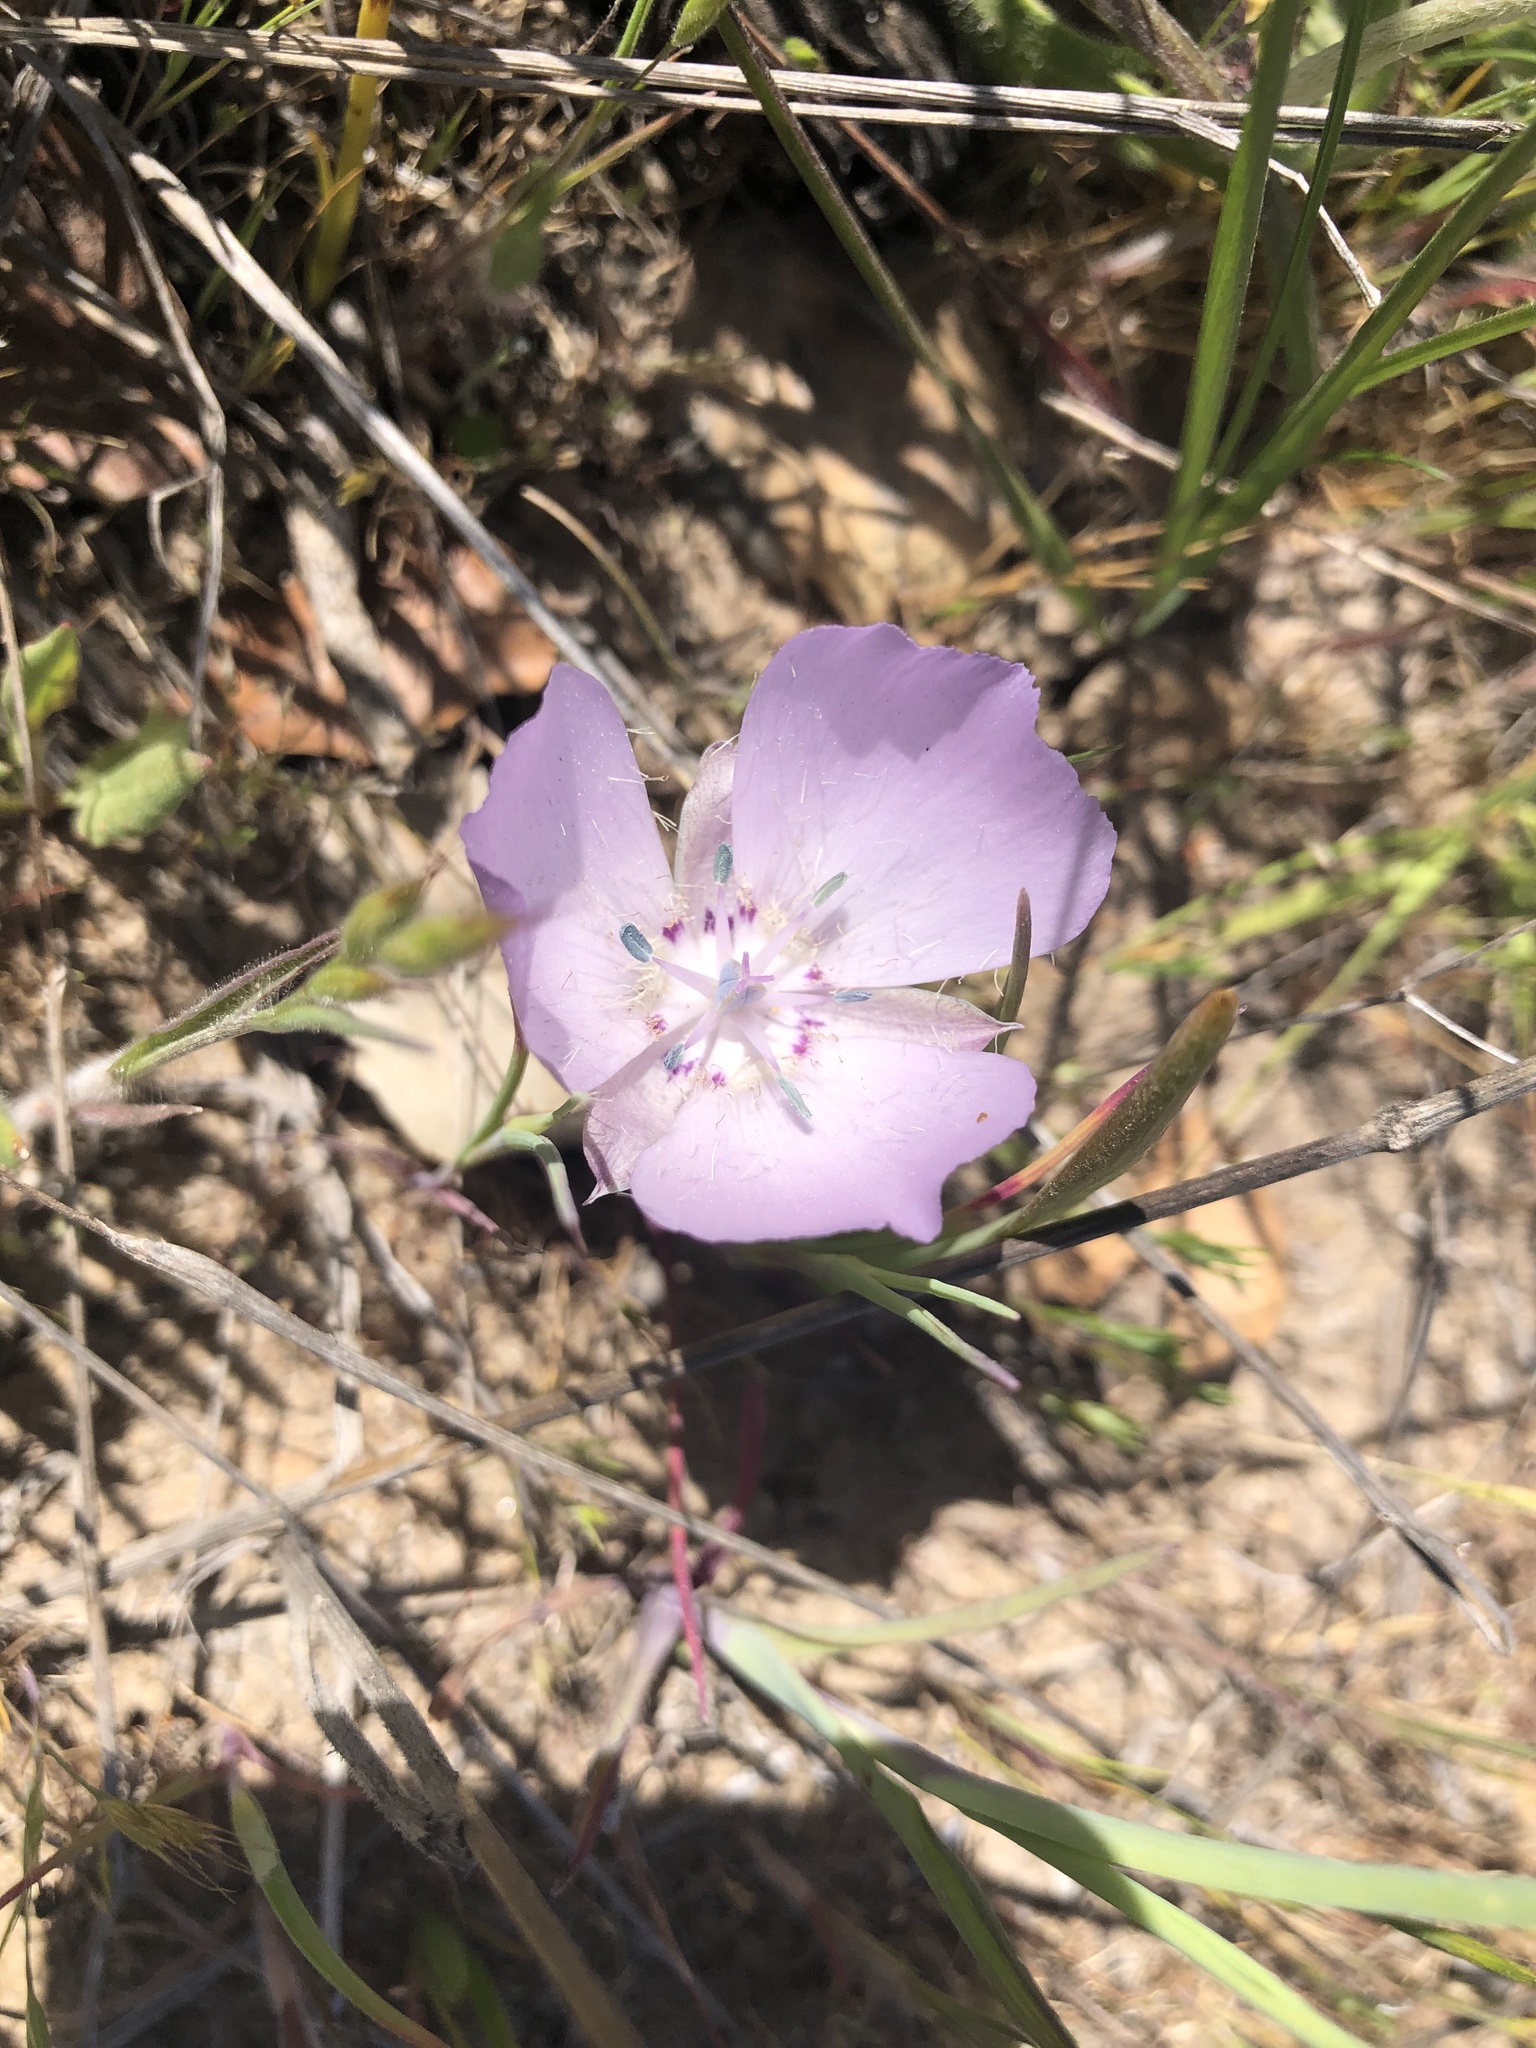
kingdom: Plantae
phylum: Tracheophyta
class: Liliopsida
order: Liliales
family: Liliaceae
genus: Calochortus
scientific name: Calochortus uniflorus
